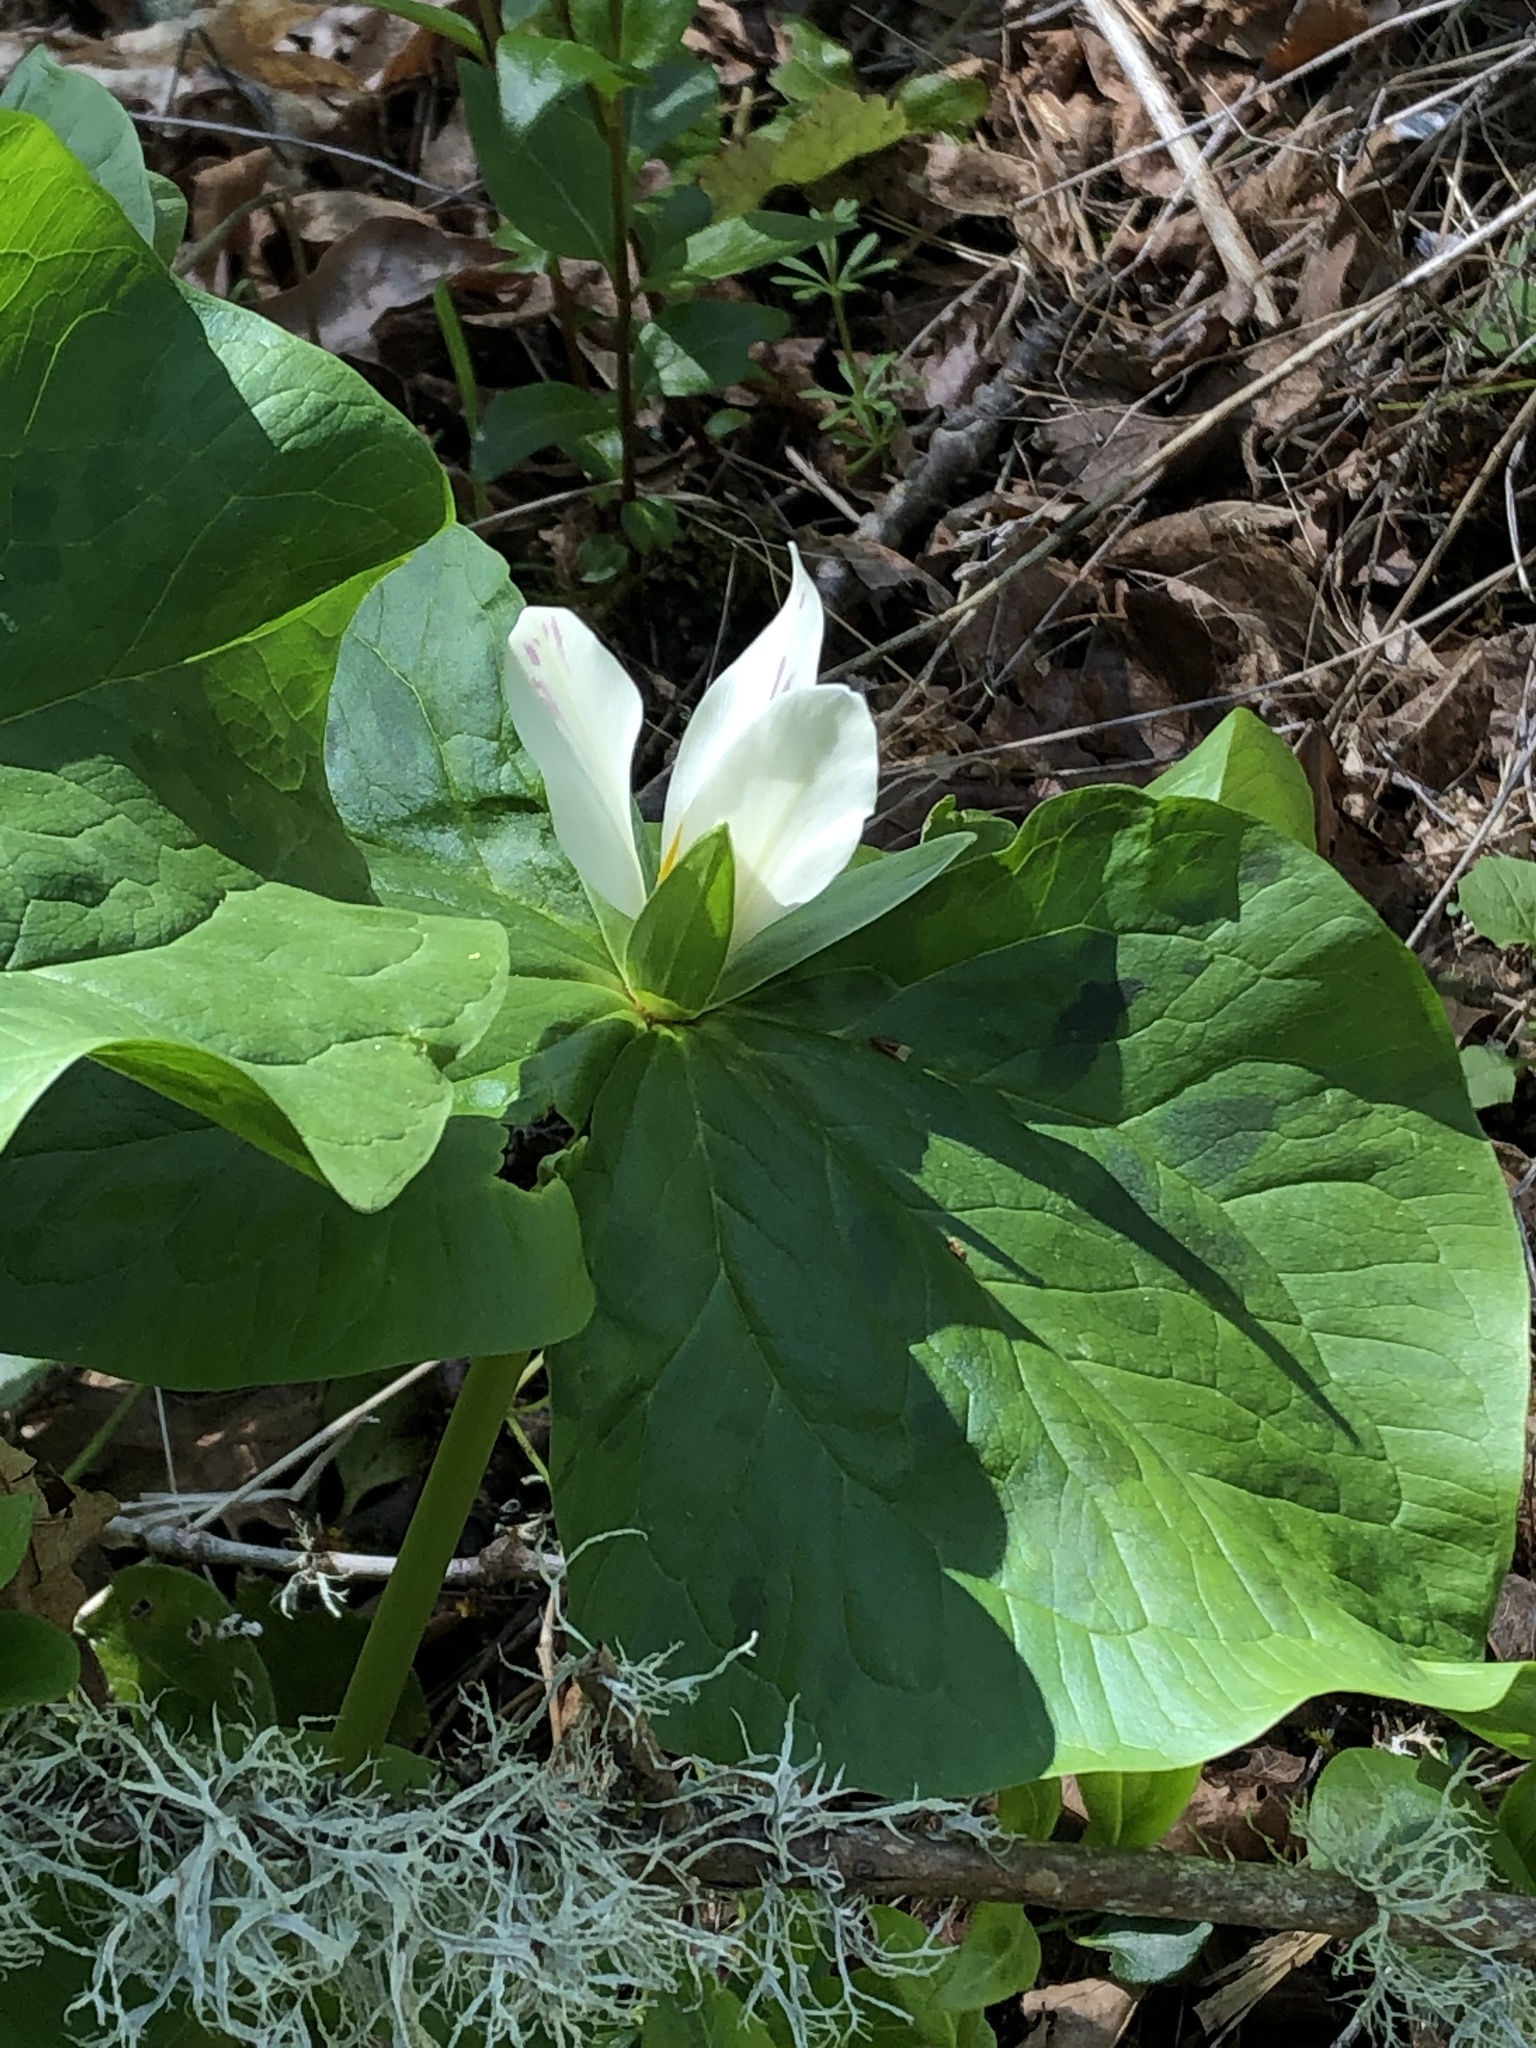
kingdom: Plantae
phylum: Tracheophyta
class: Liliopsida
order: Liliales
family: Melanthiaceae
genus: Trillium
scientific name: Trillium albidum
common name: Freeman's trillium
